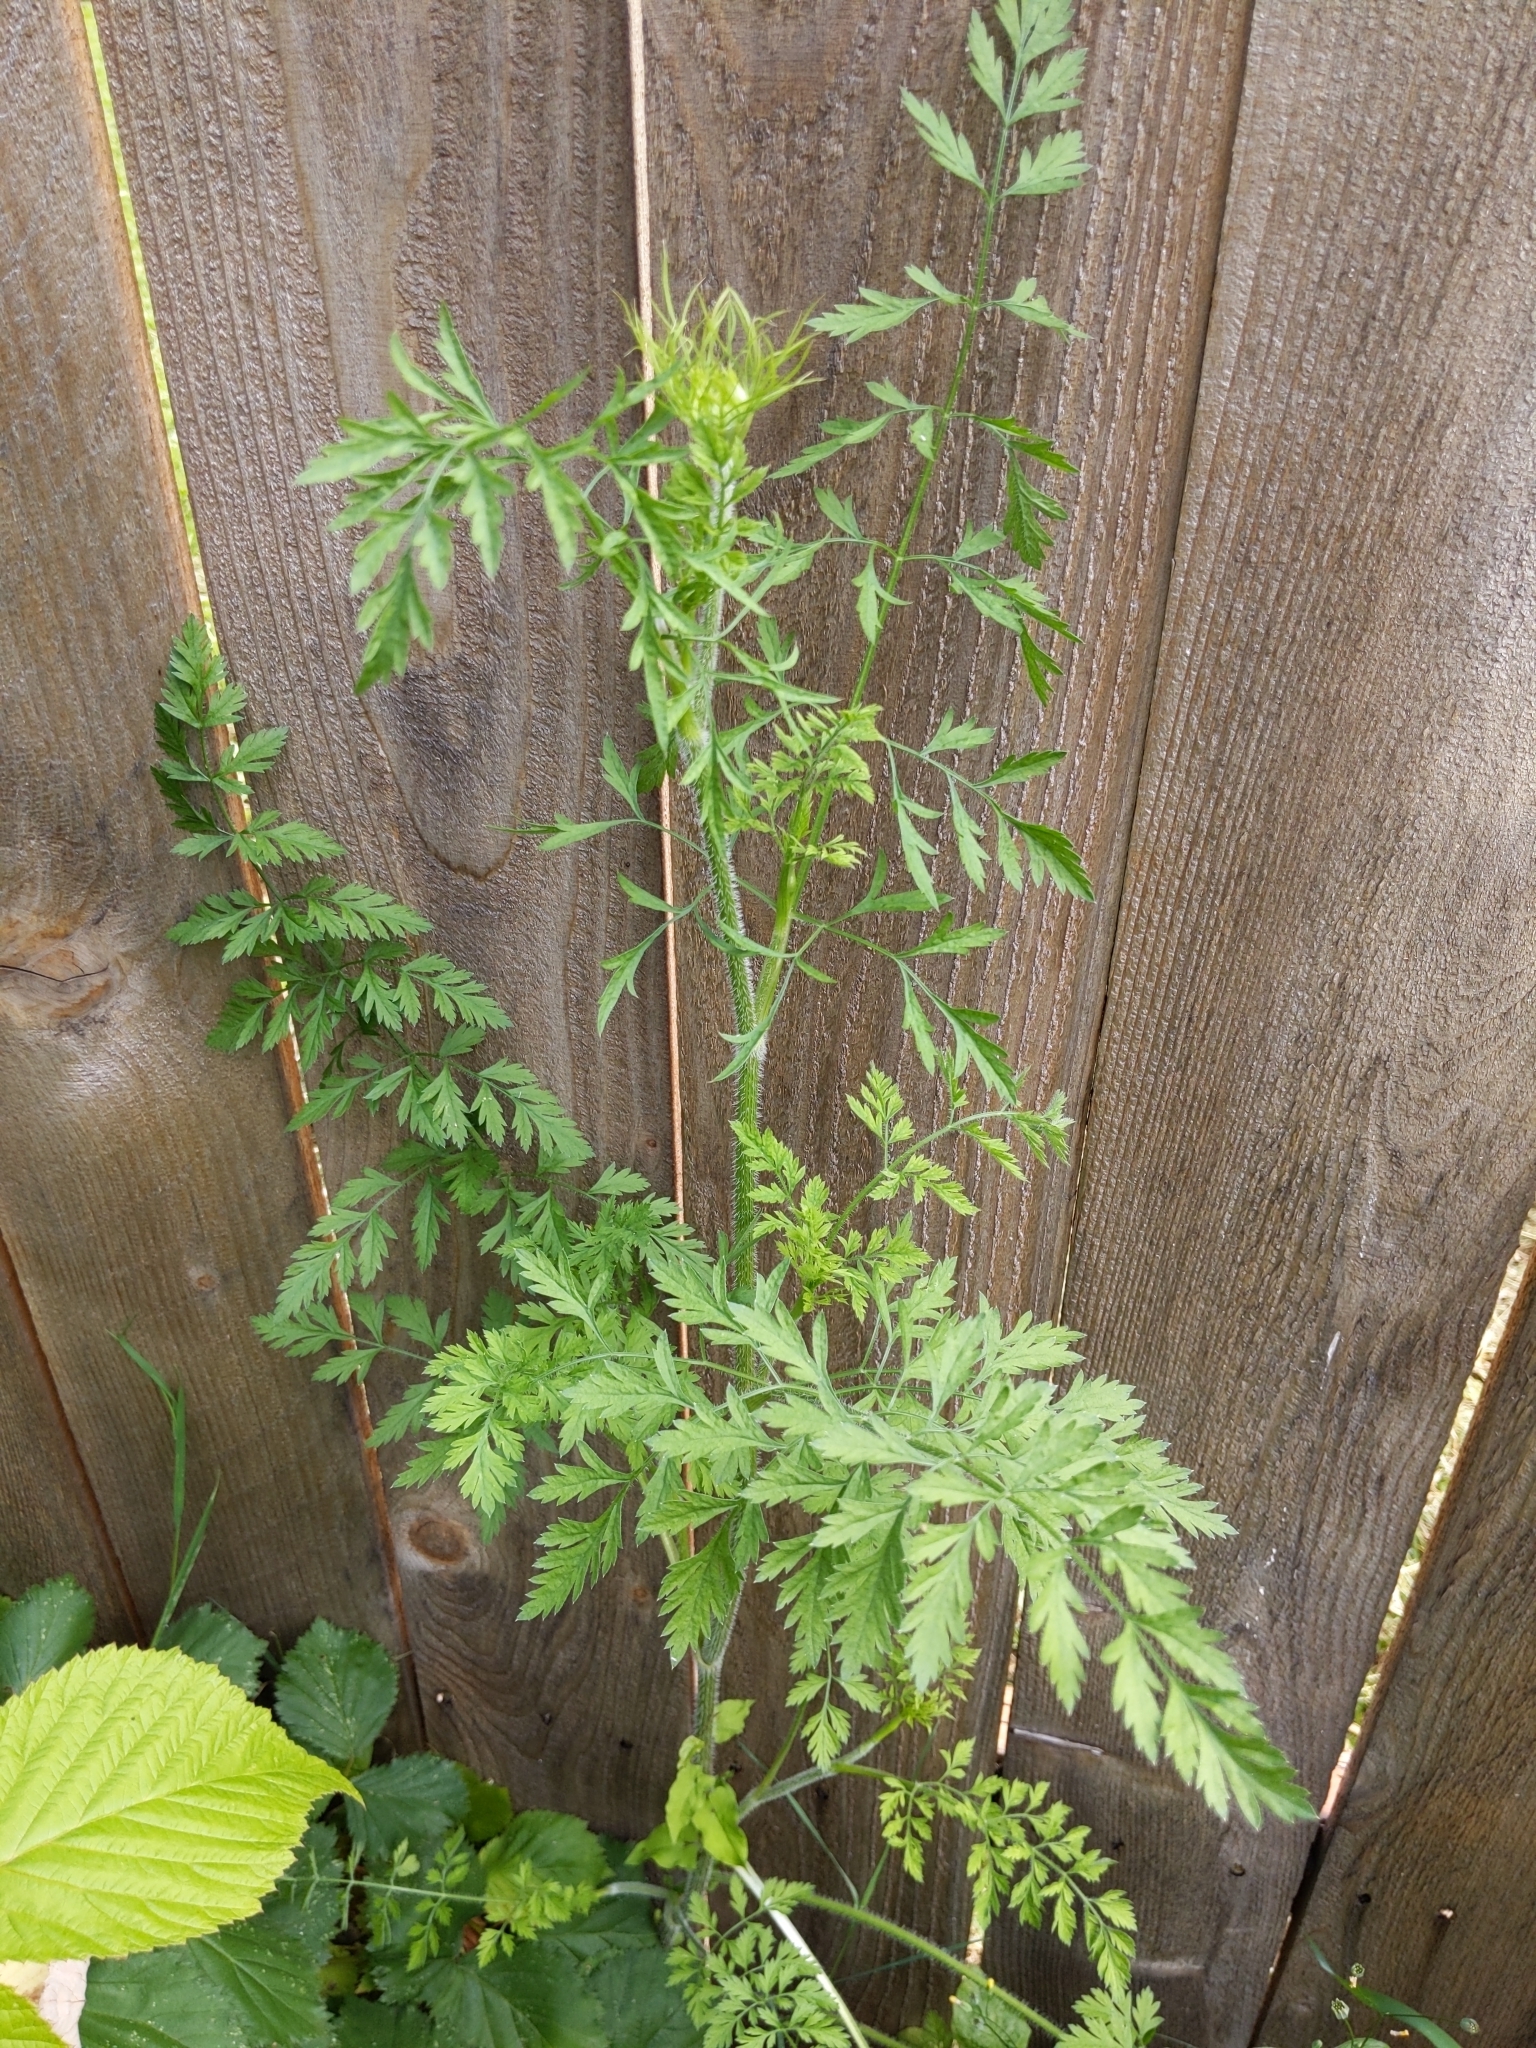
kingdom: Plantae
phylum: Tracheophyta
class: Magnoliopsida
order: Apiales
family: Apiaceae
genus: Daucus
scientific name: Daucus carota
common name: Wild carrot
